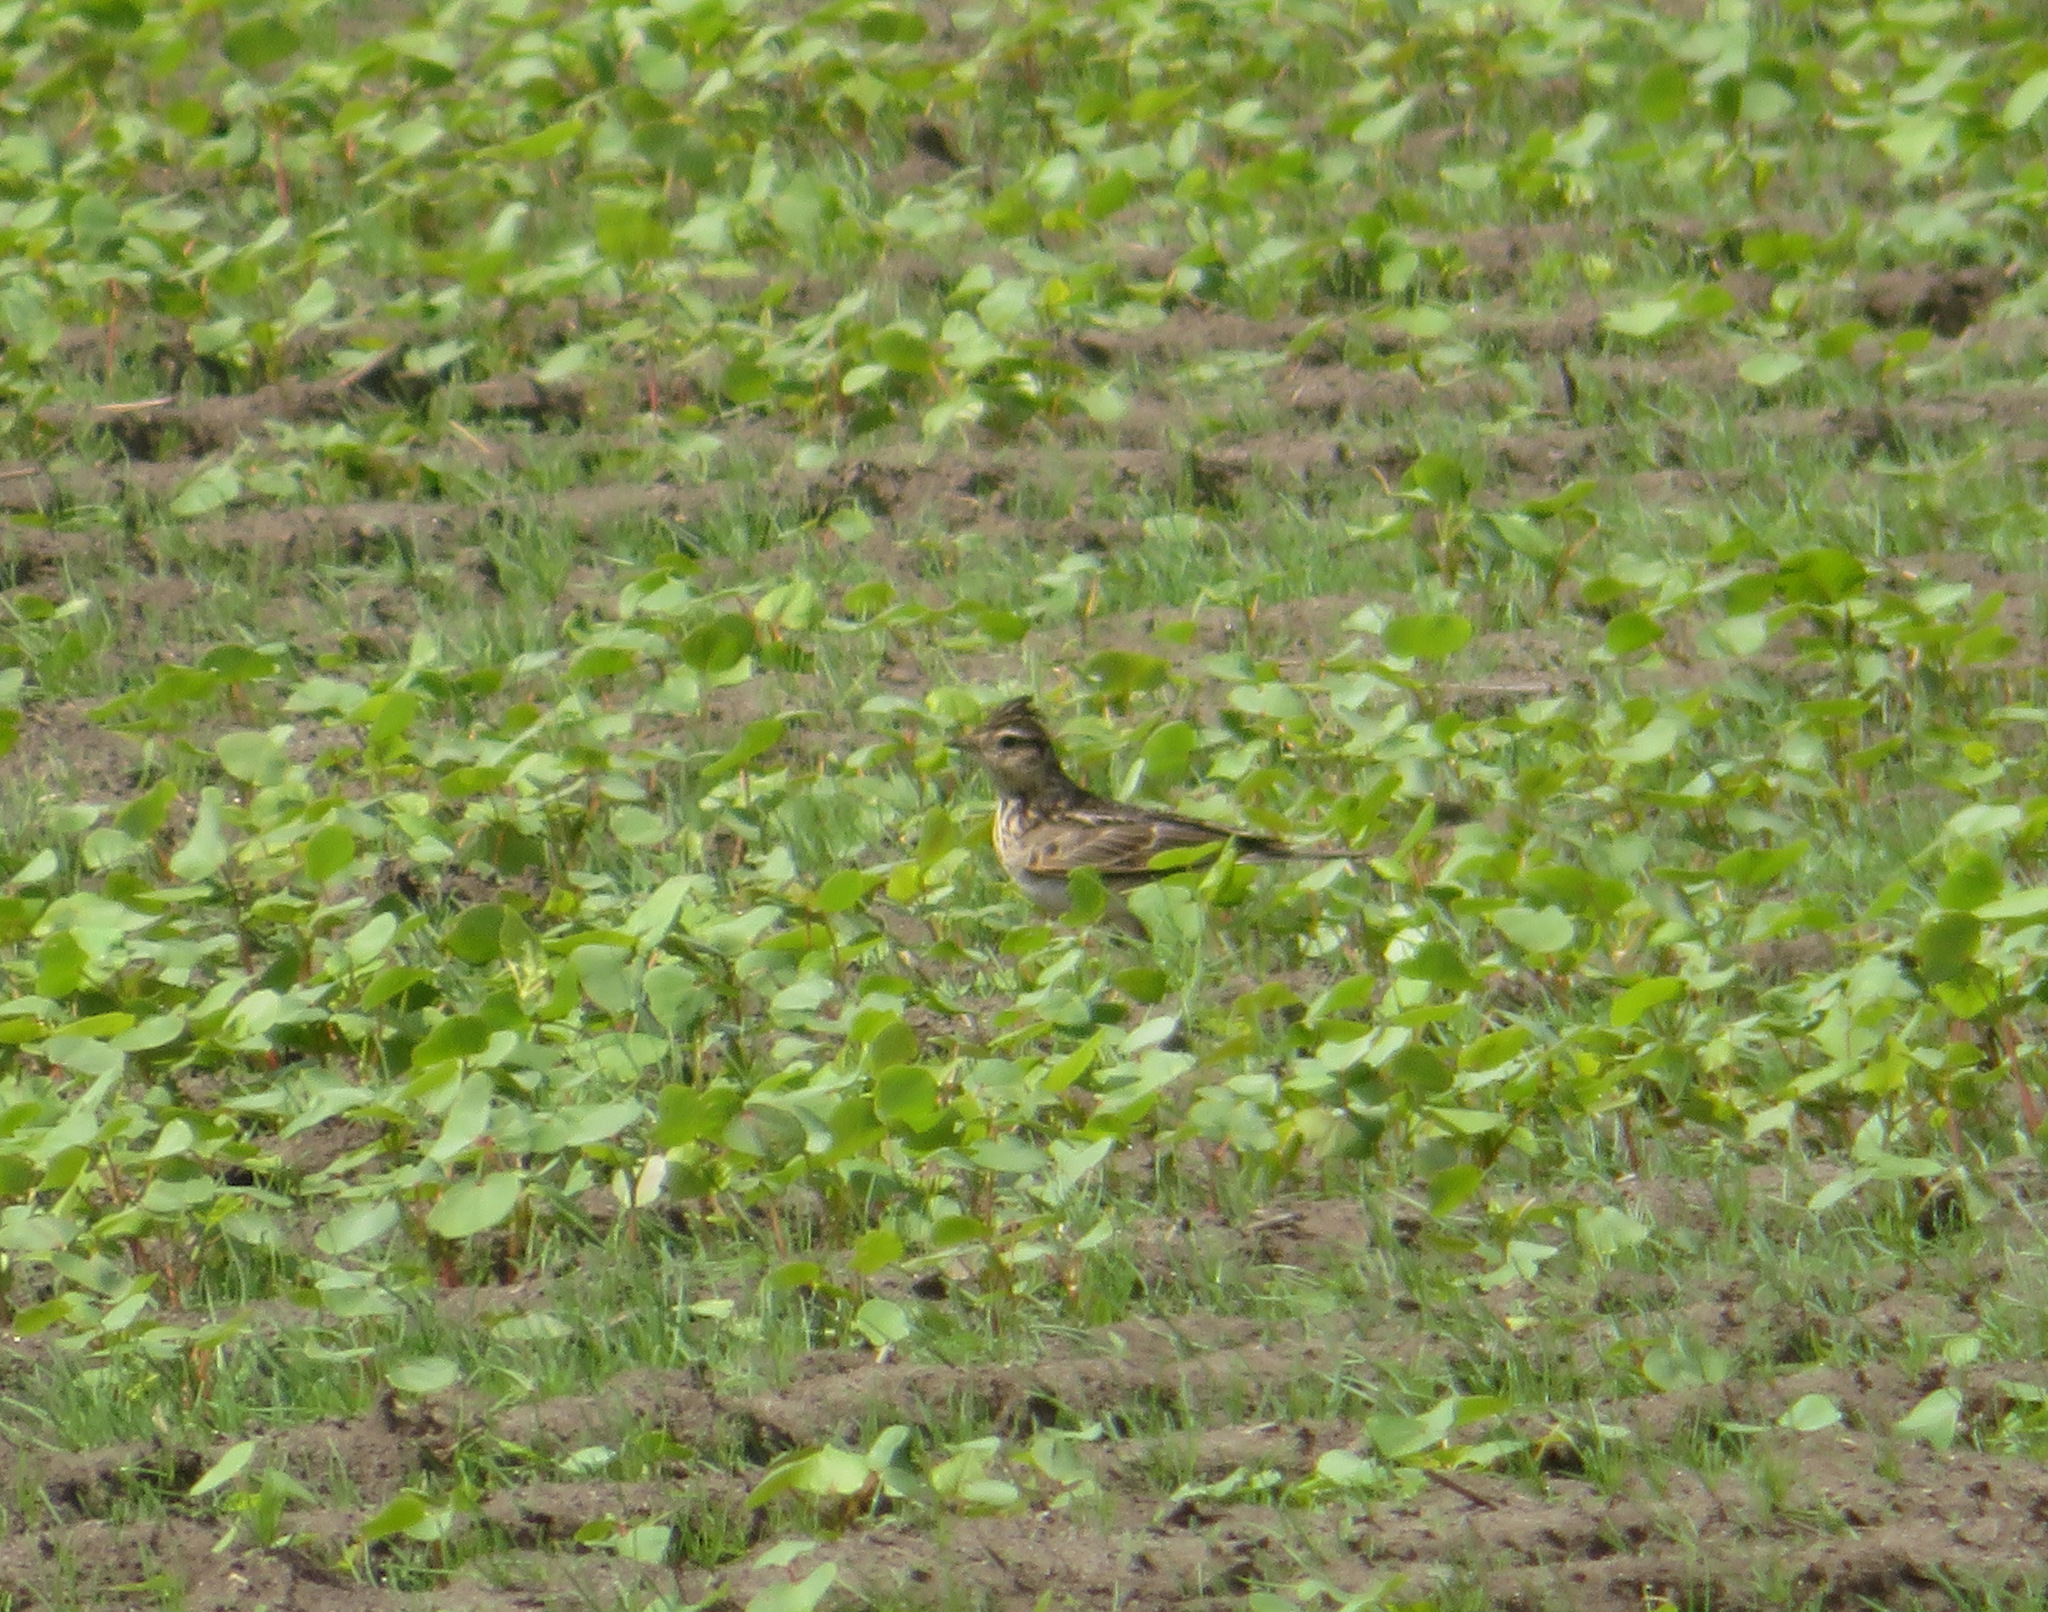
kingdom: Animalia
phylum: Chordata
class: Aves
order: Passeriformes
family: Alaudidae
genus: Alauda
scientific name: Alauda arvensis
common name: Eurasian skylark
